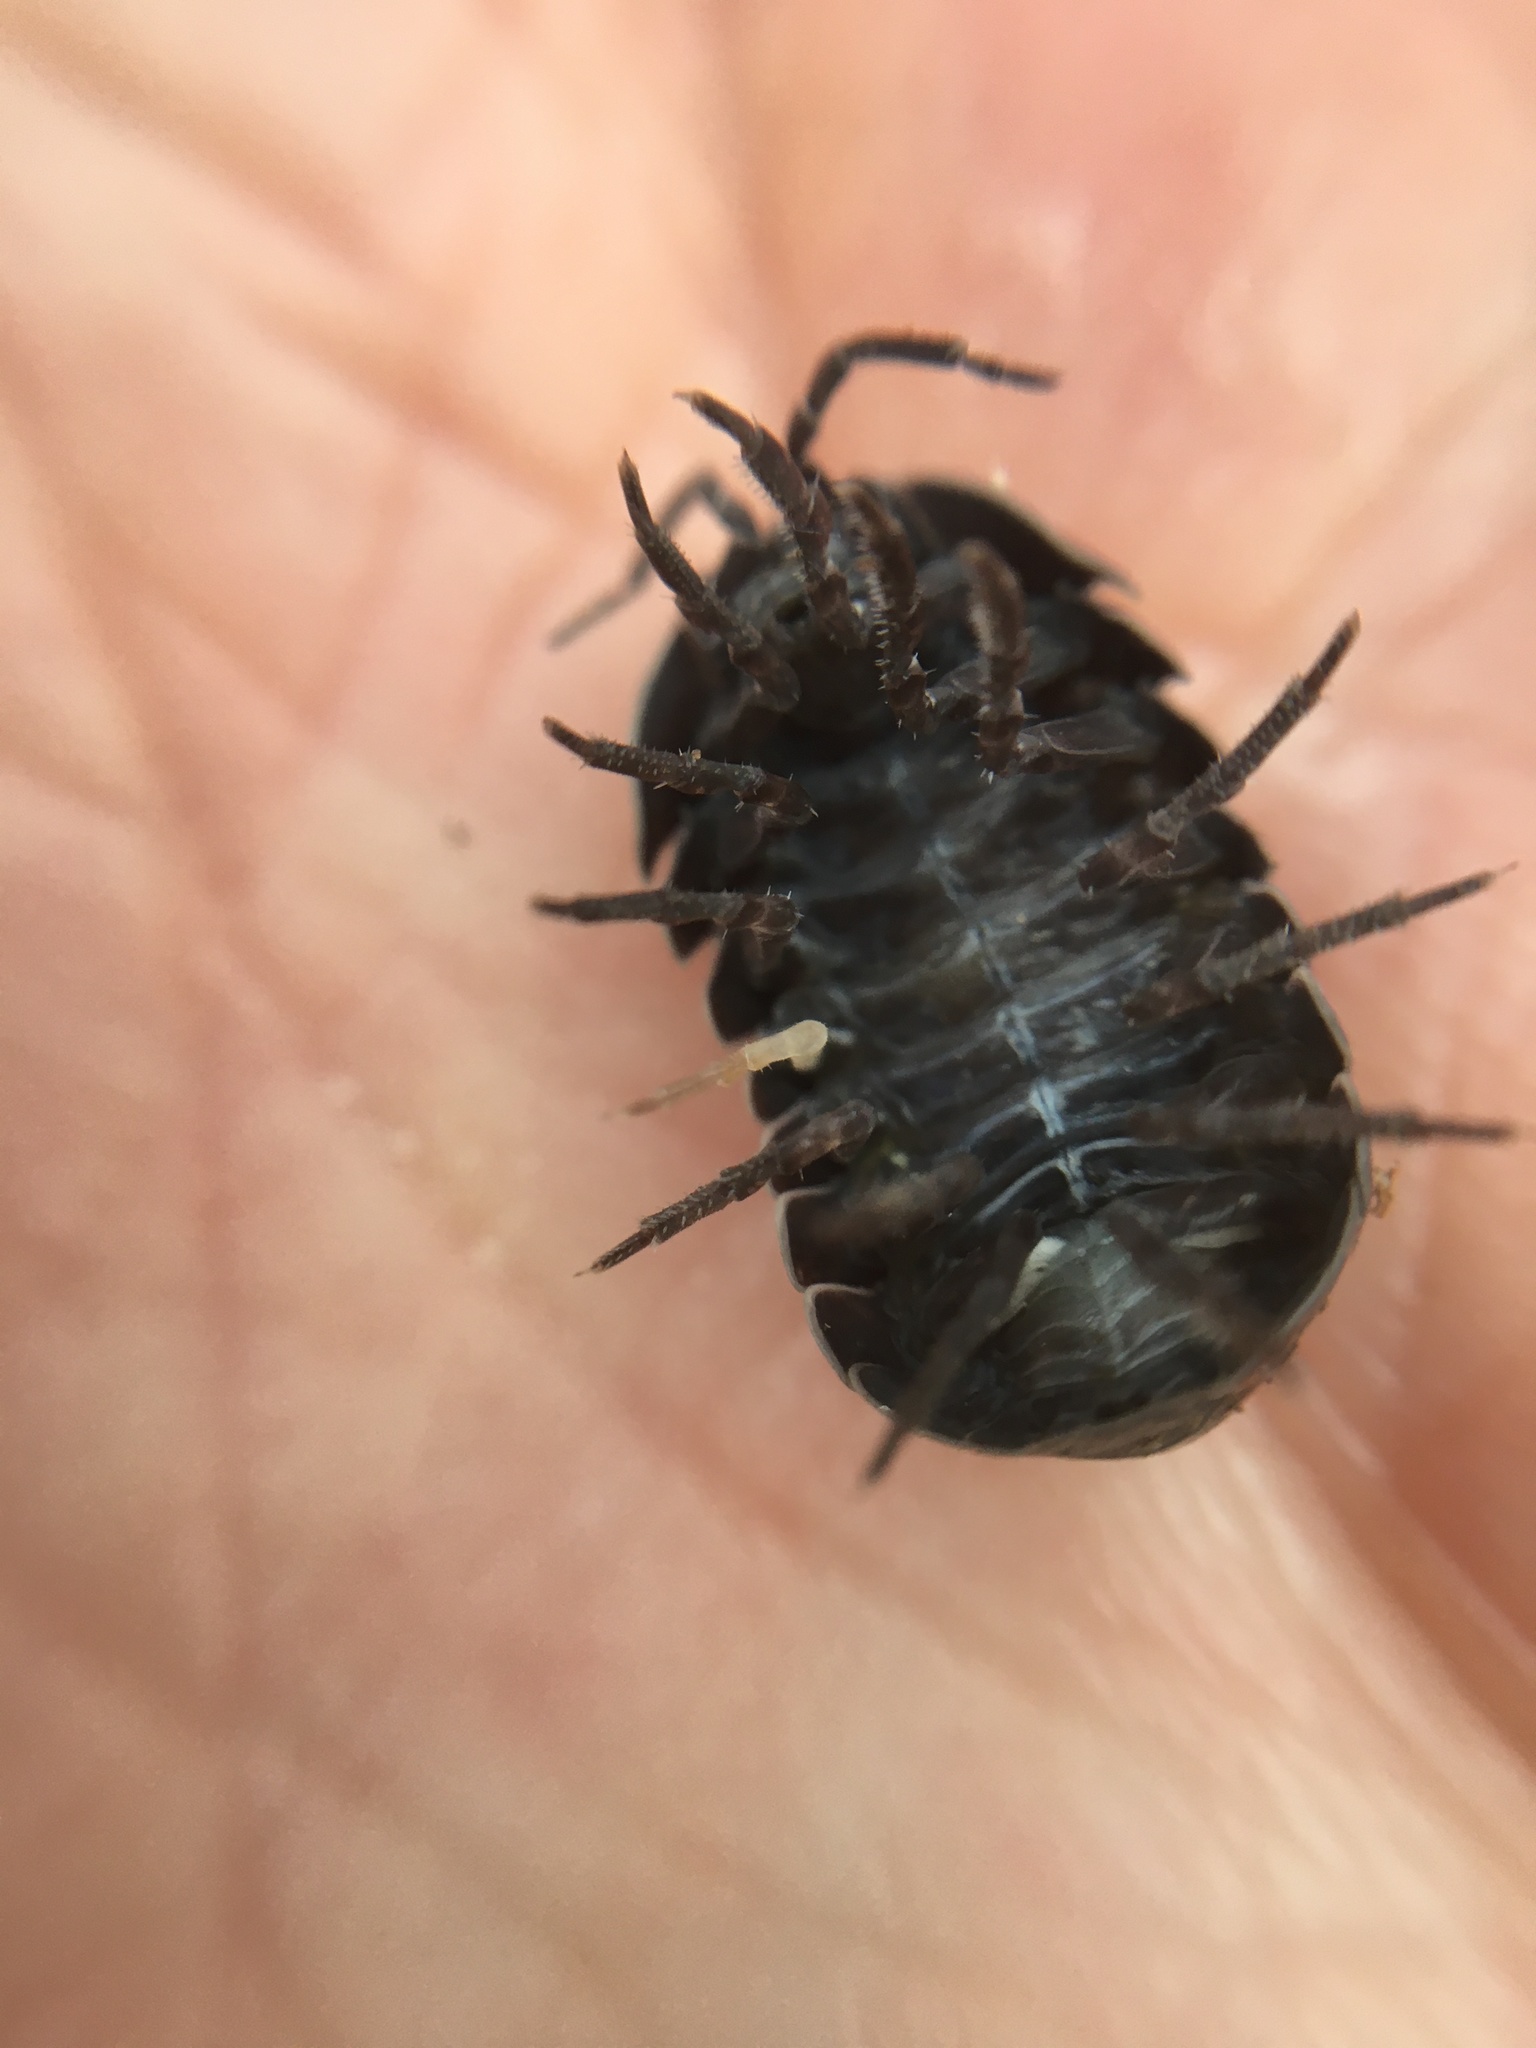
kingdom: Animalia
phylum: Arthropoda
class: Malacostraca
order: Isopoda
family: Armadillidiidae
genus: Armadillidium
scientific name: Armadillidium vulgare
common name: Common pill woodlouse
